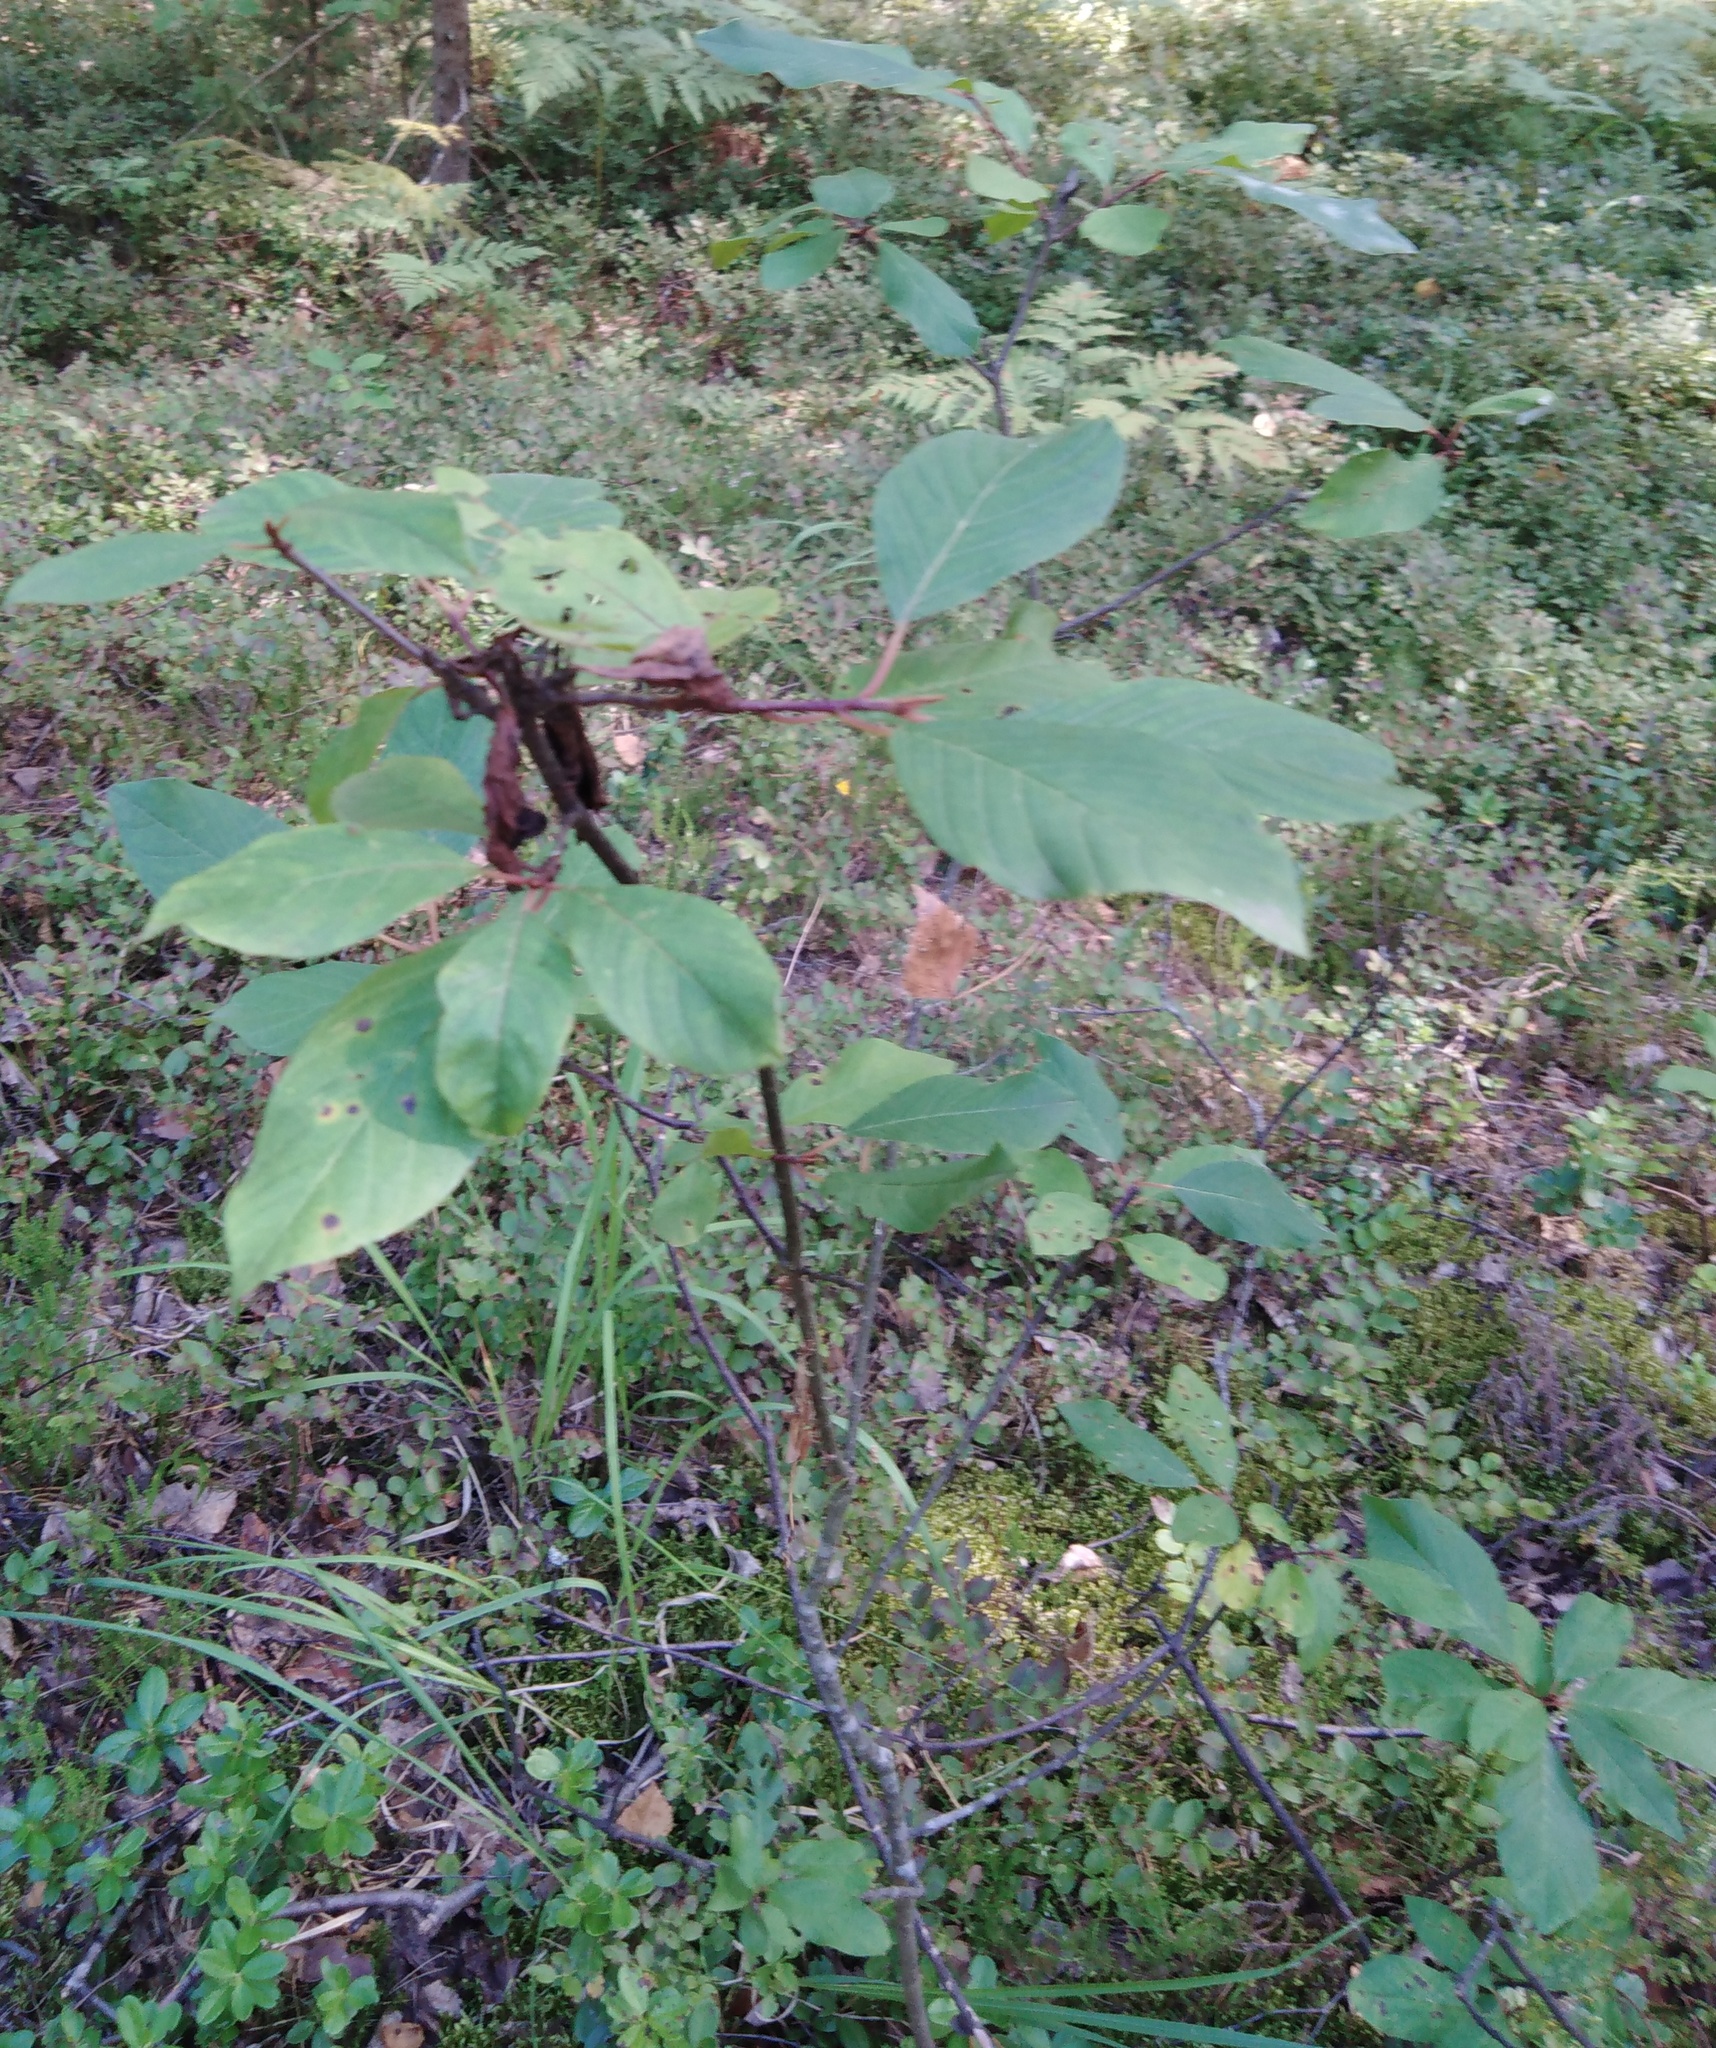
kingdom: Plantae
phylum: Tracheophyta
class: Magnoliopsida
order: Rosales
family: Rhamnaceae
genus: Frangula
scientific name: Frangula alnus
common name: Alder buckthorn
